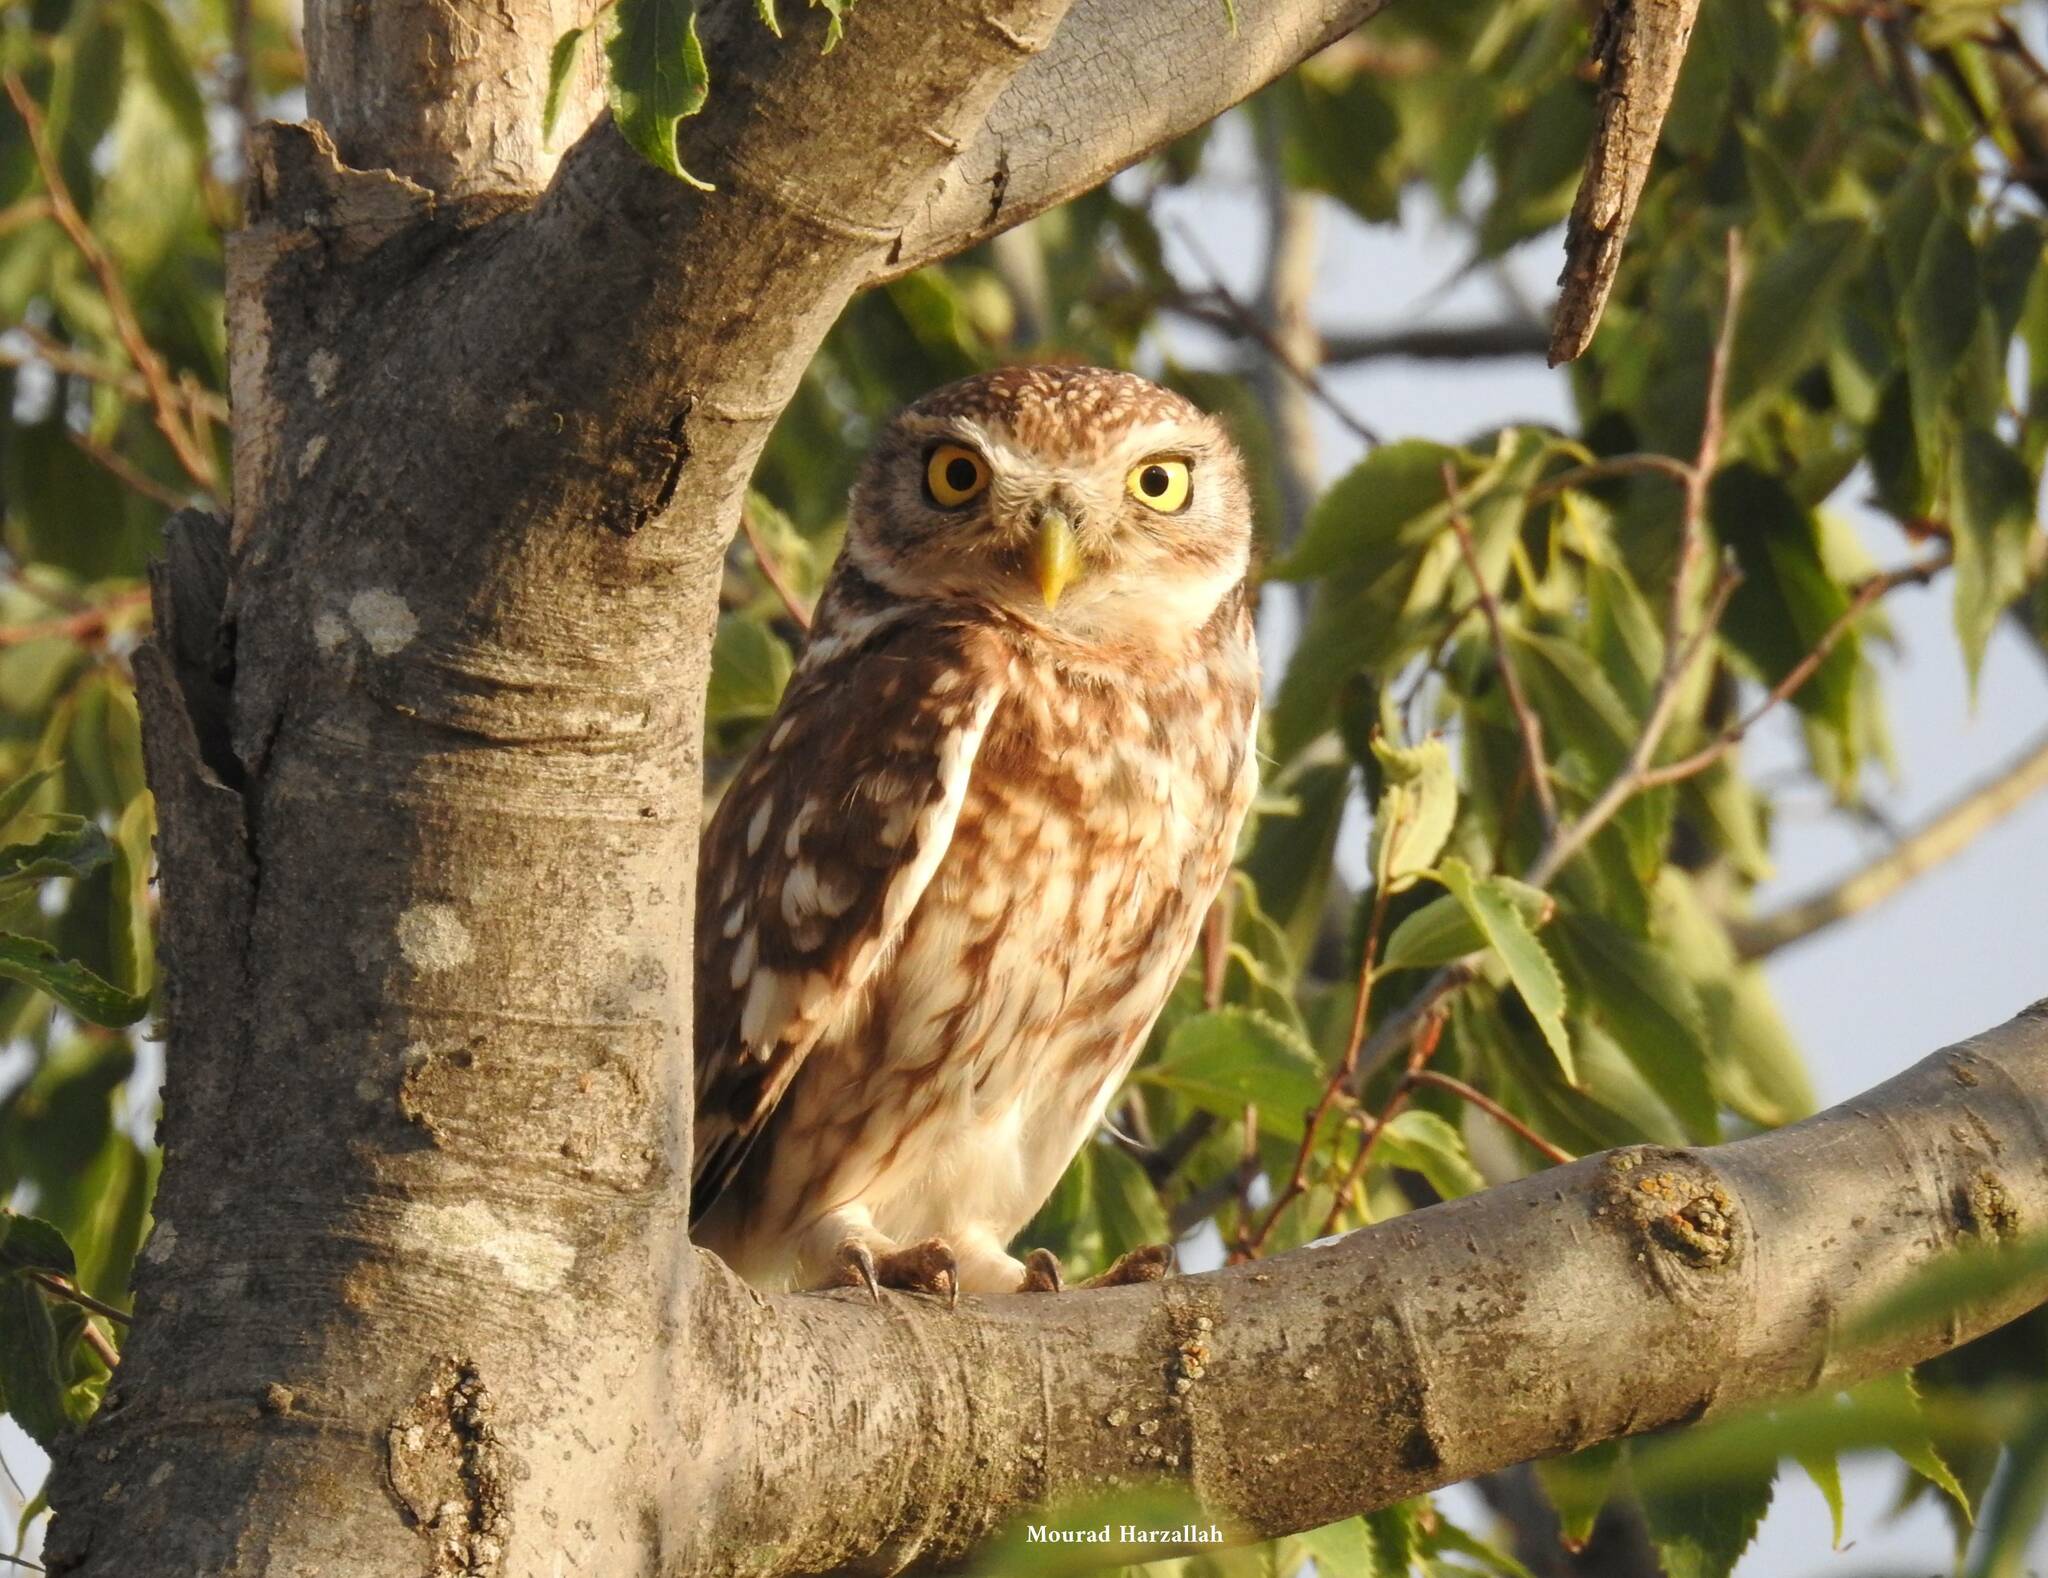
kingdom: Animalia
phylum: Chordata
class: Aves
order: Strigiformes
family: Strigidae
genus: Athene
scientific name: Athene noctua
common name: Little owl
